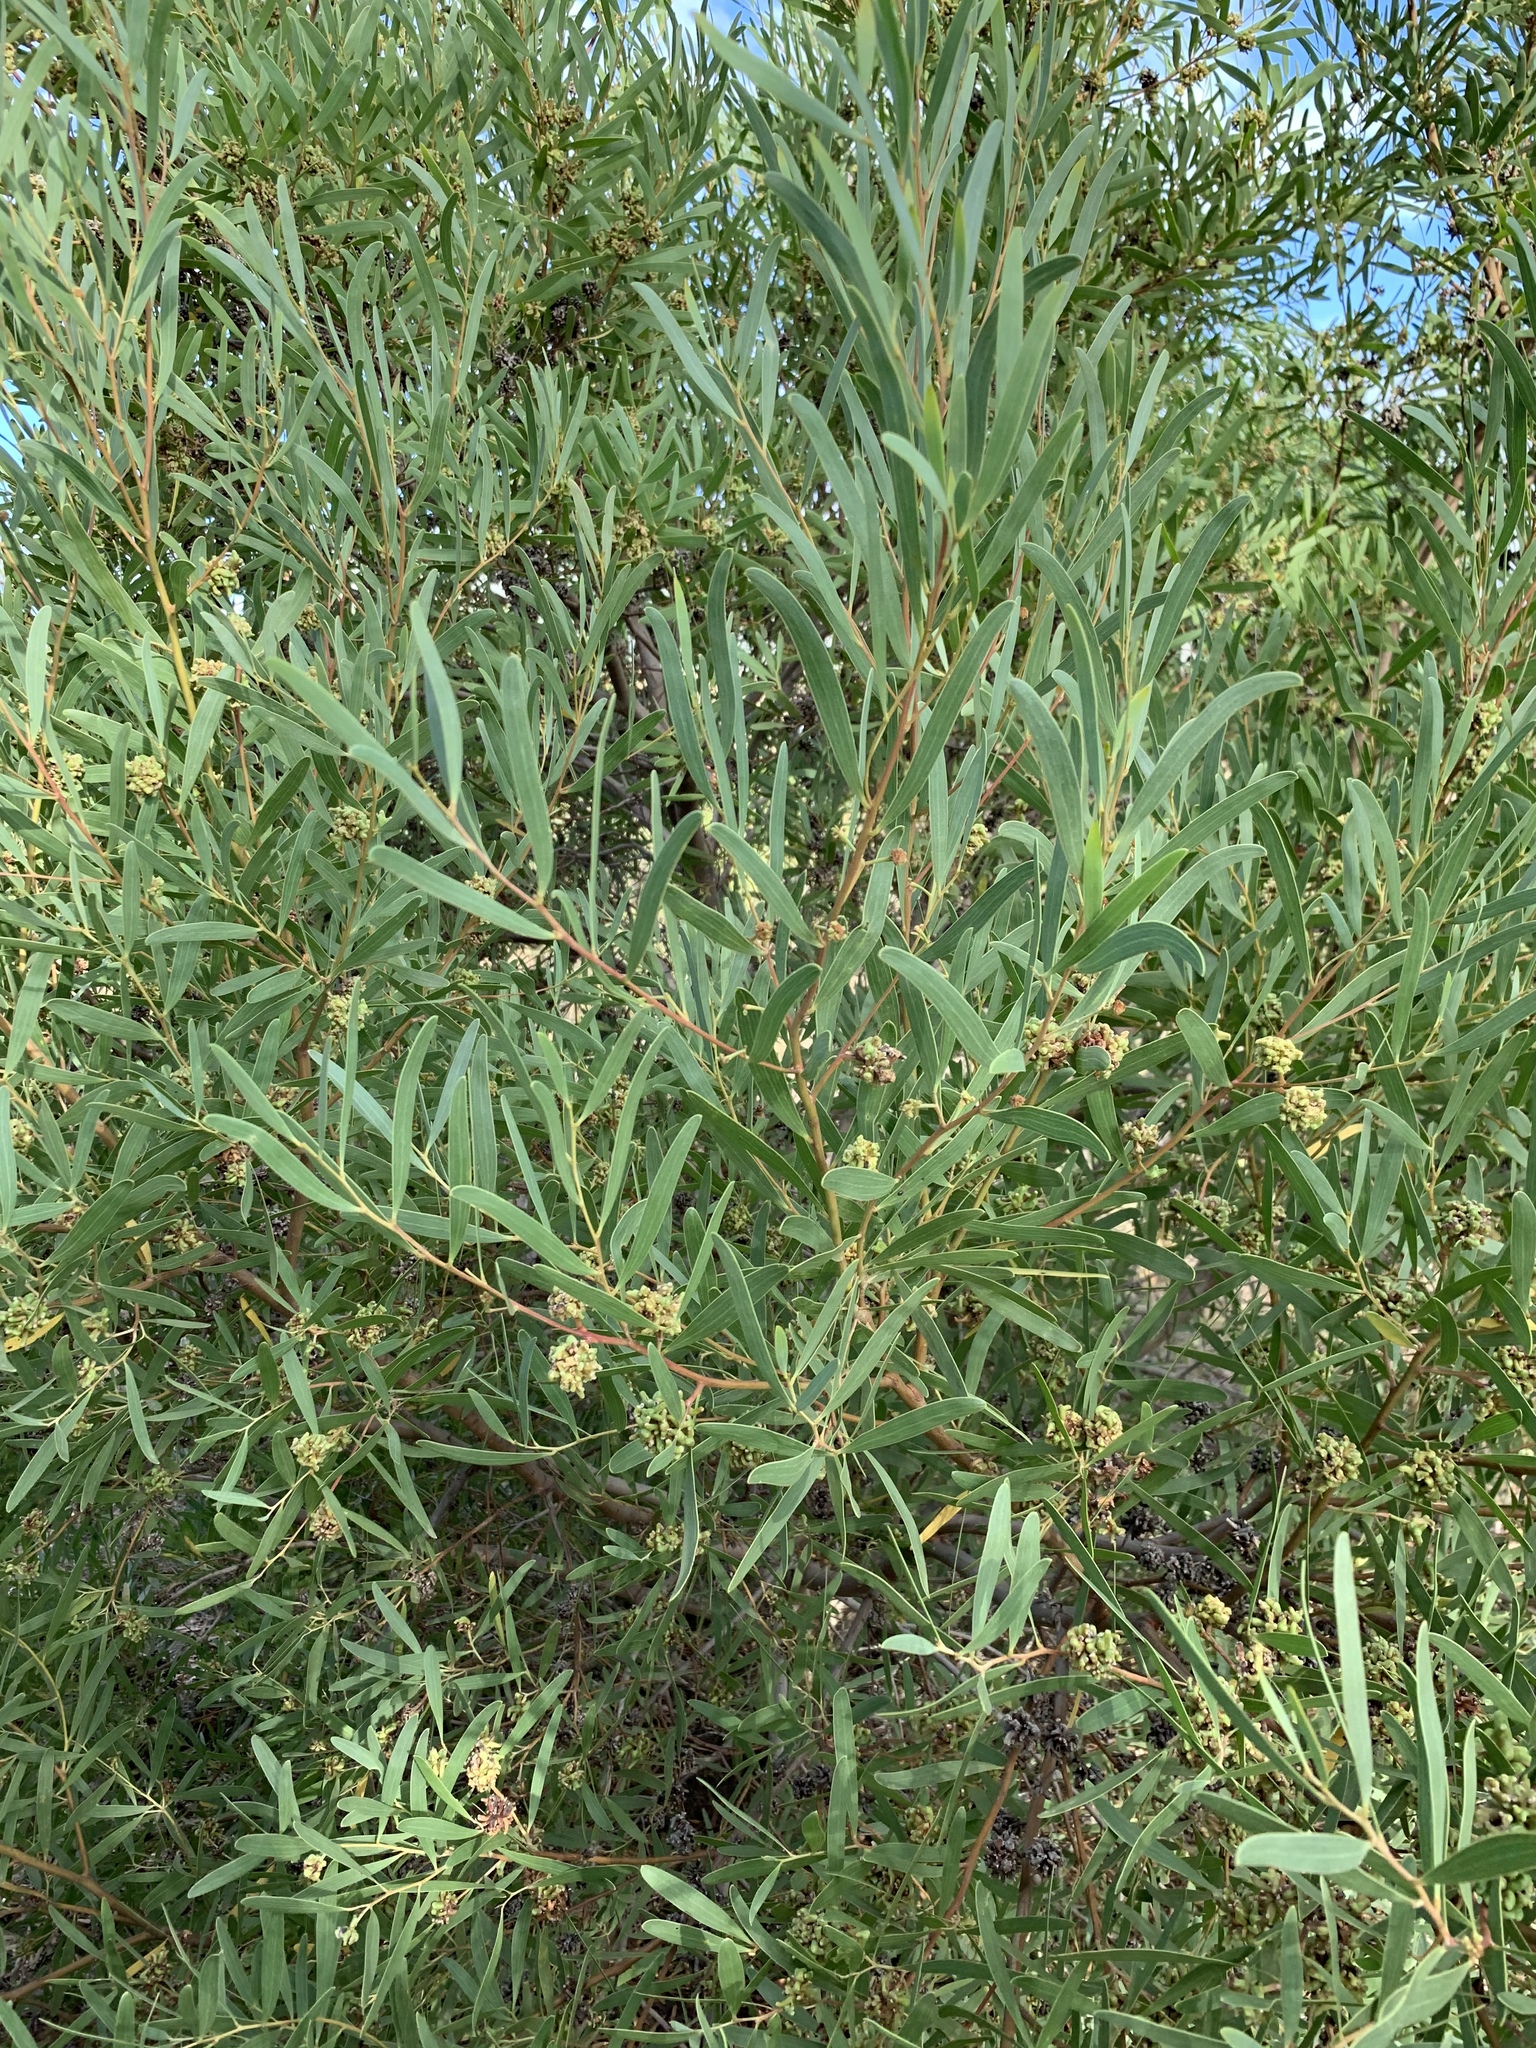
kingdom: Animalia
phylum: Arthropoda
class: Insecta
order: Diptera
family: Cecidomyiidae
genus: Dasineura
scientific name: Dasineura dielsi
